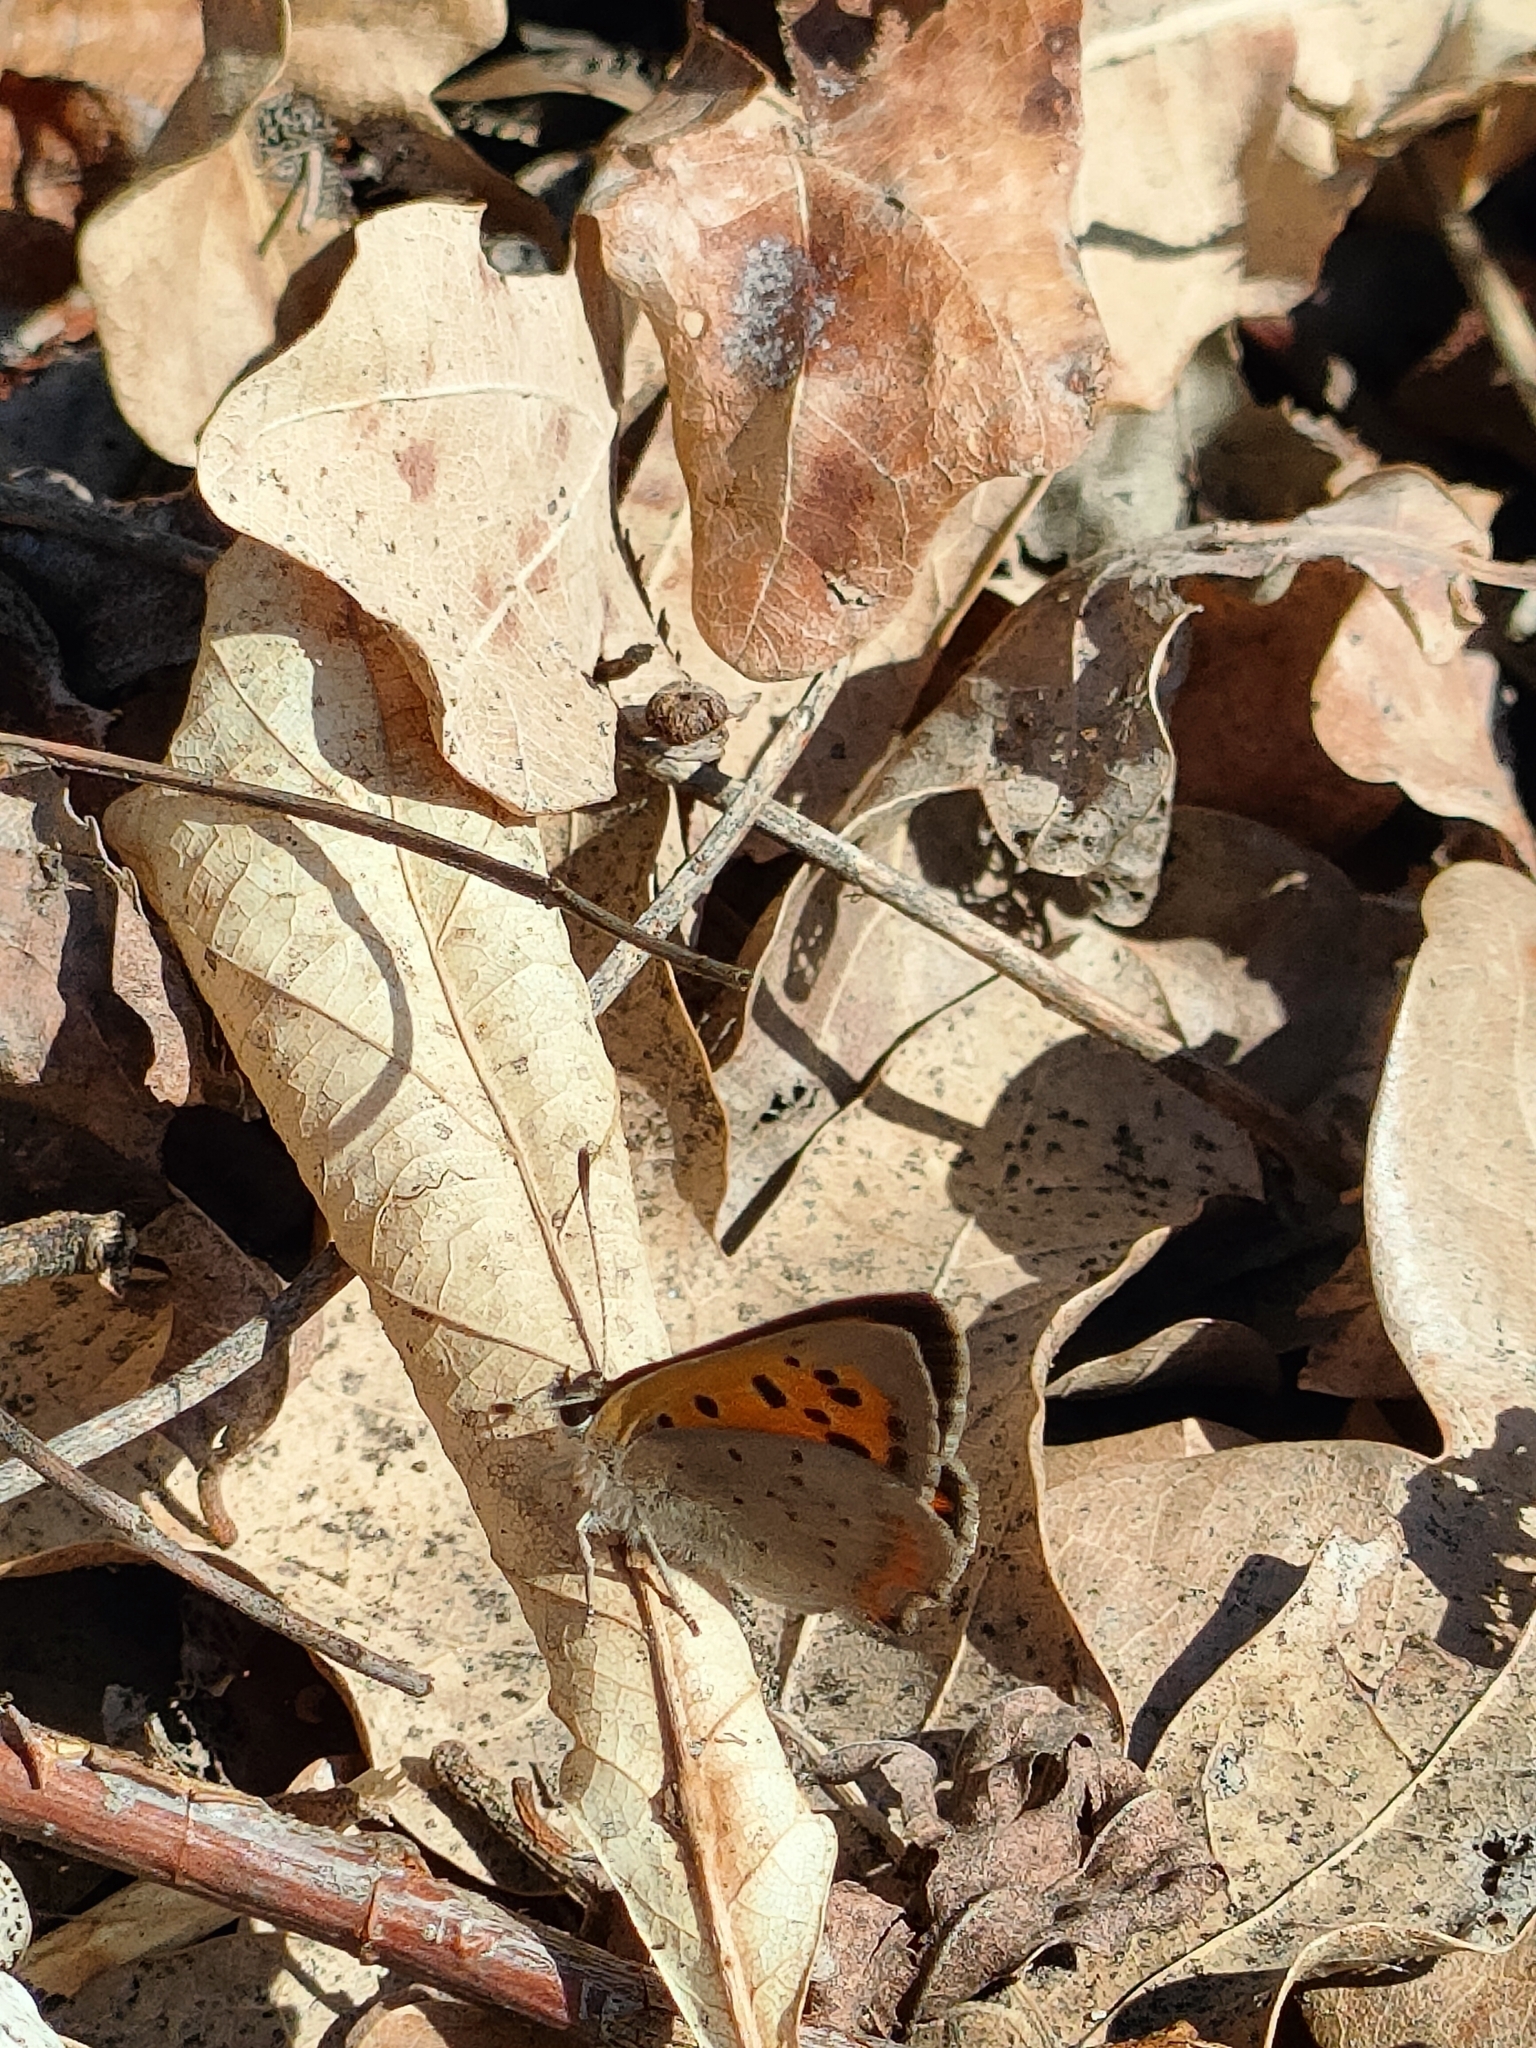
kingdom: Animalia
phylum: Arthropoda
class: Insecta
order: Lepidoptera
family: Lycaenidae
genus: Lycaena
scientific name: Lycaena phlaeas
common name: Small copper
